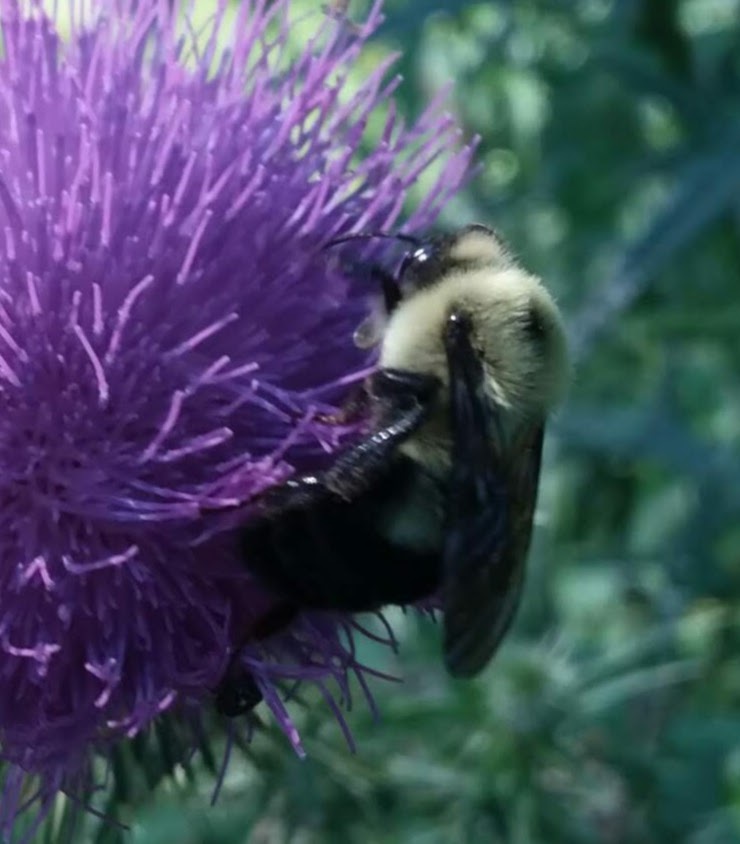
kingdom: Animalia
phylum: Arthropoda
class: Insecta
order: Hymenoptera
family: Apidae
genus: Bombus
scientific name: Bombus bimaculatus
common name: Two-spotted bumble bee
